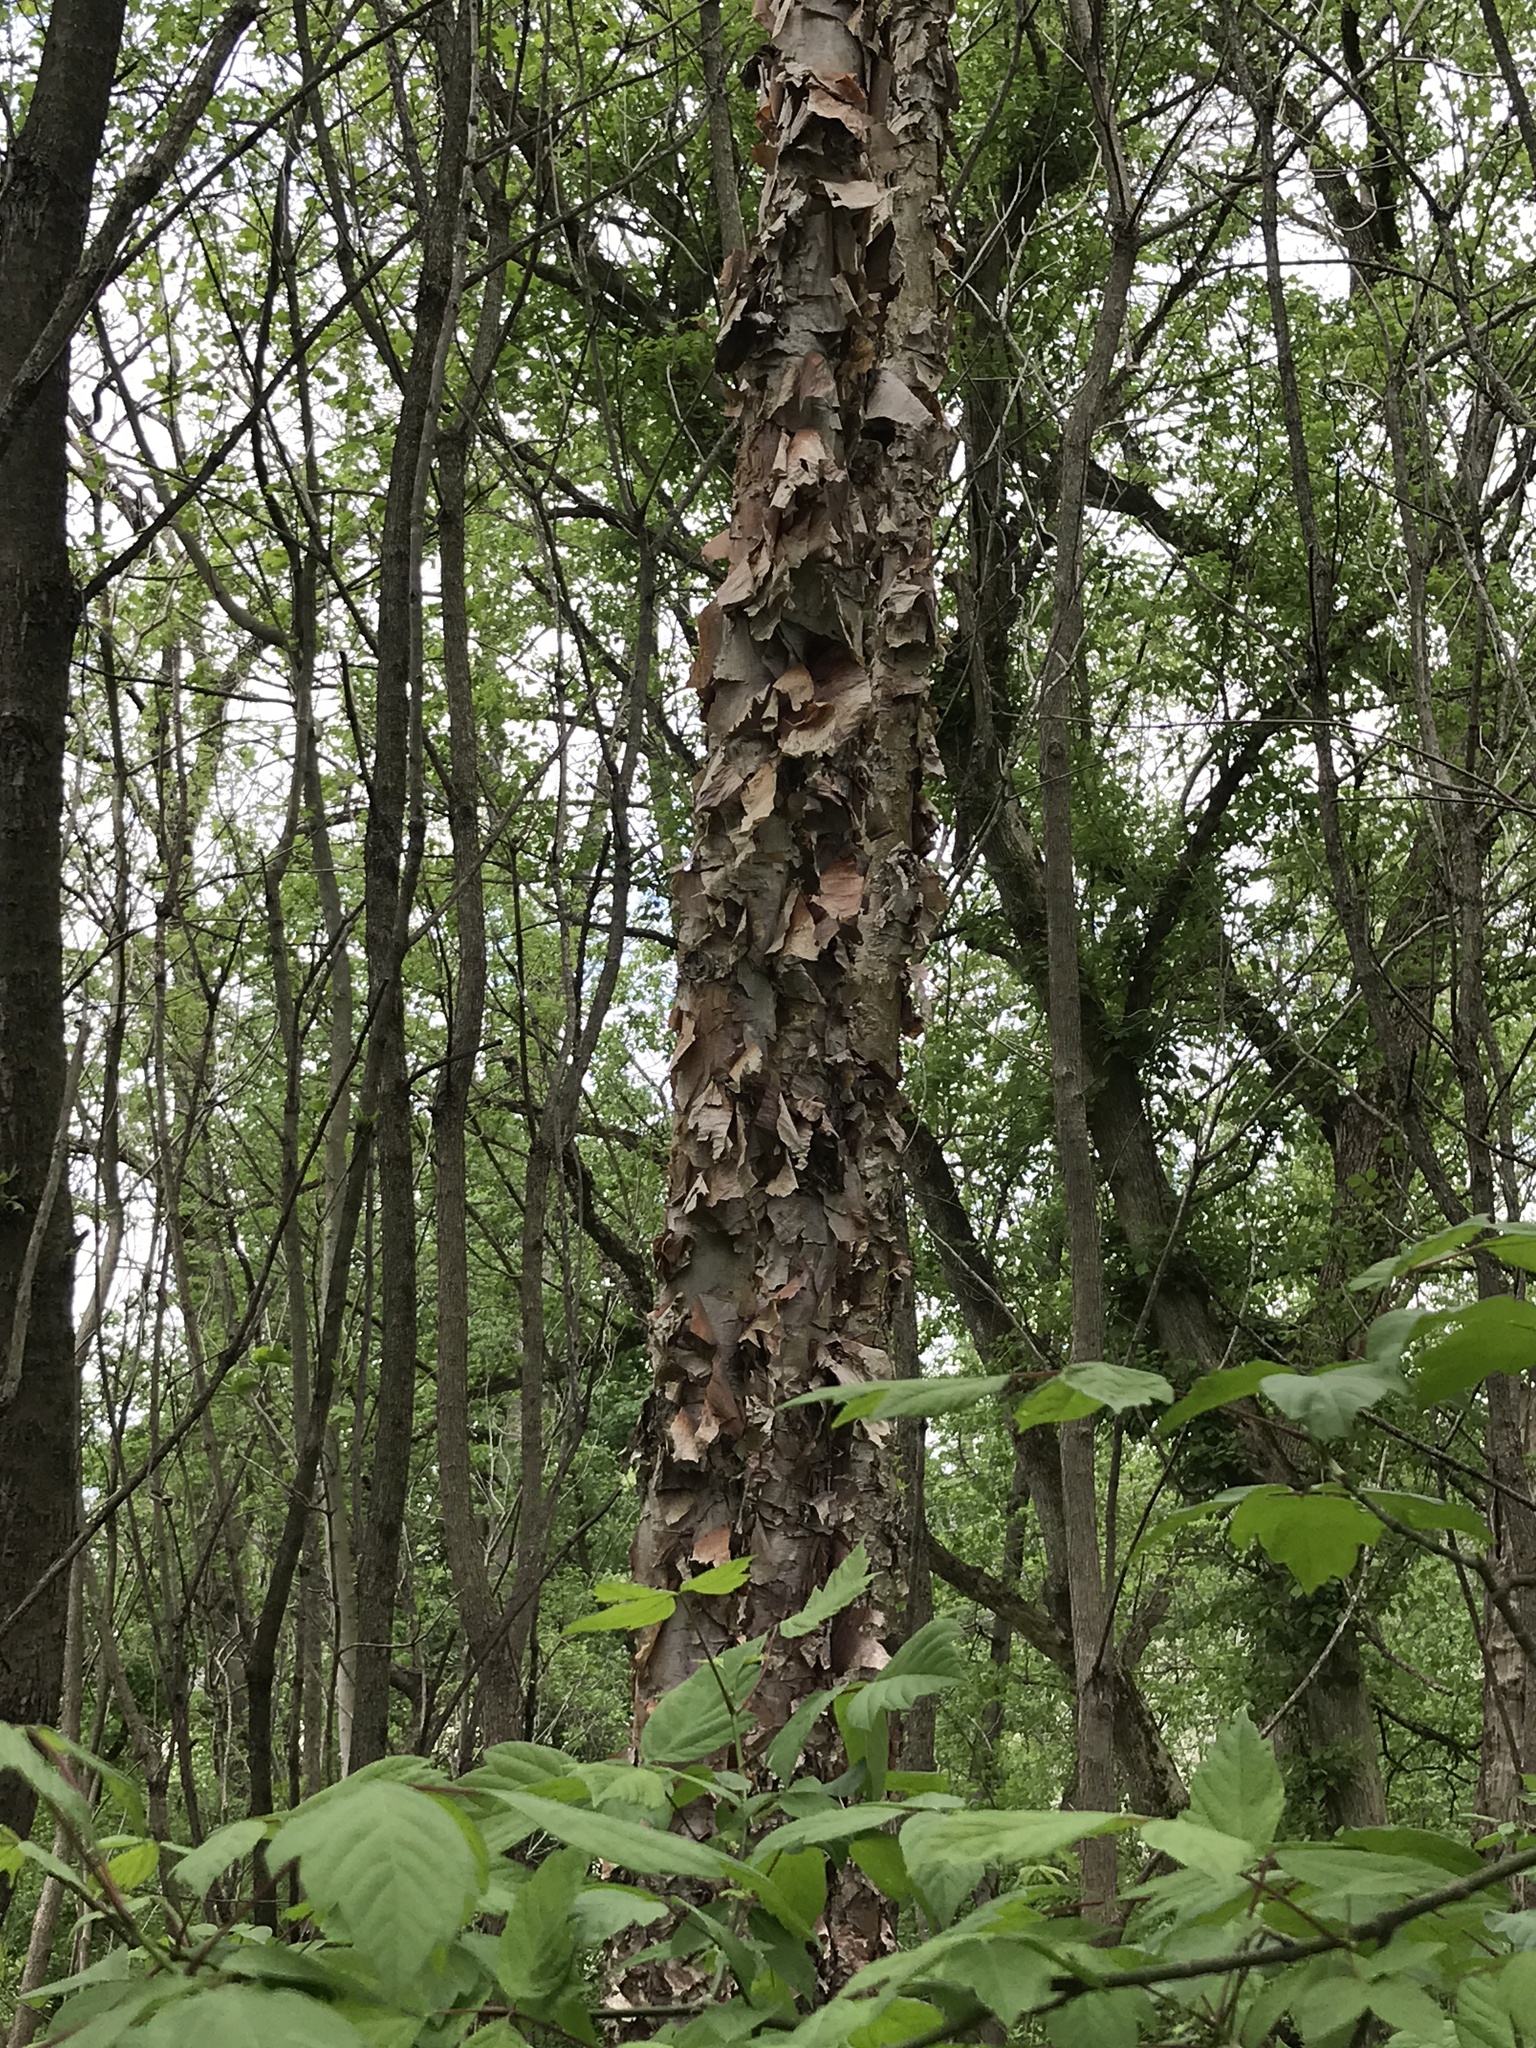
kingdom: Plantae
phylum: Tracheophyta
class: Magnoliopsida
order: Fagales
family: Betulaceae
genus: Betula
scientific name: Betula nigra
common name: Black birch
